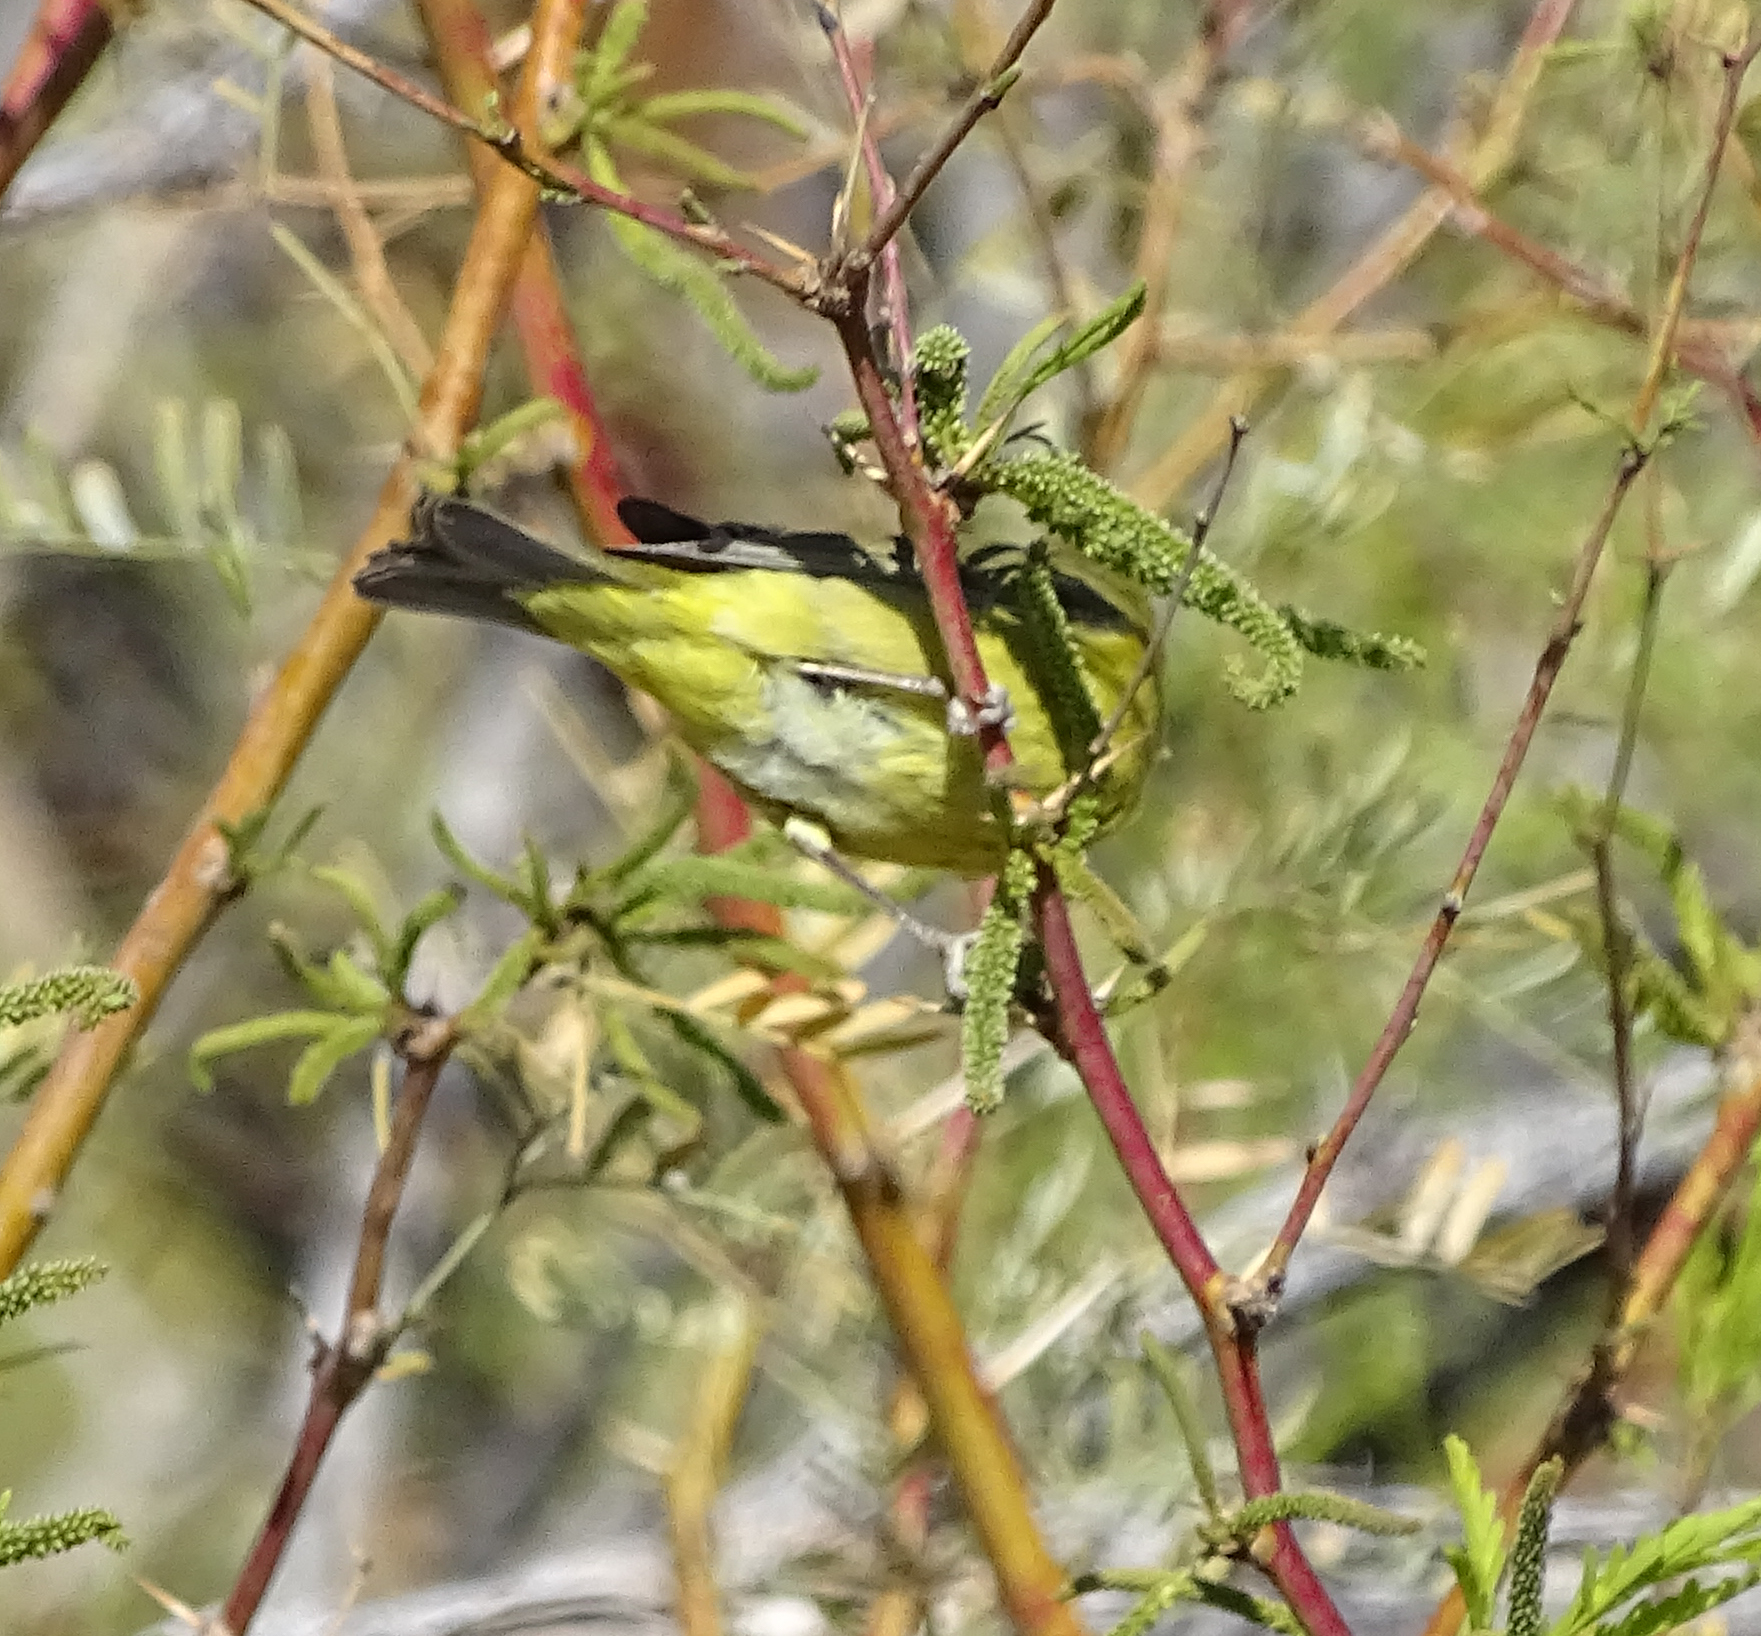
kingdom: Animalia
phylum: Chordata
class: Aves
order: Passeriformes
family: Parulidae
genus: Leiothlypis
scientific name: Leiothlypis celata
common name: Orange-crowned warbler
